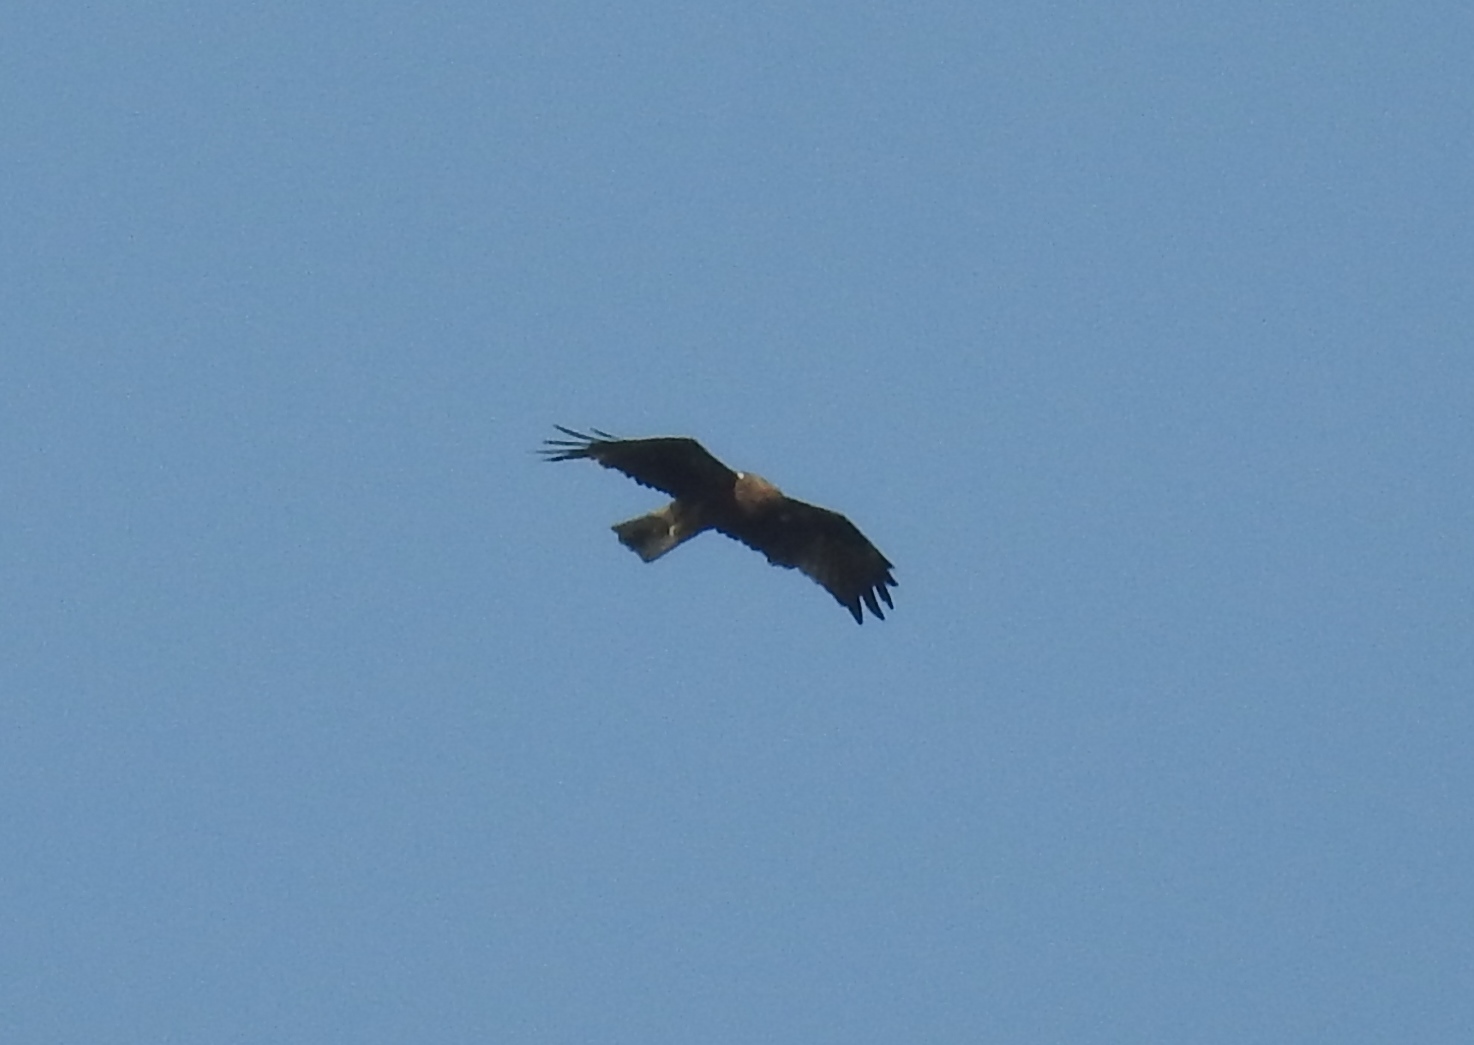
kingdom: Animalia
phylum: Chordata
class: Aves
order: Accipitriformes
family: Accipitridae
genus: Hieraaetus
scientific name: Hieraaetus pennatus
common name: Booted eagle
